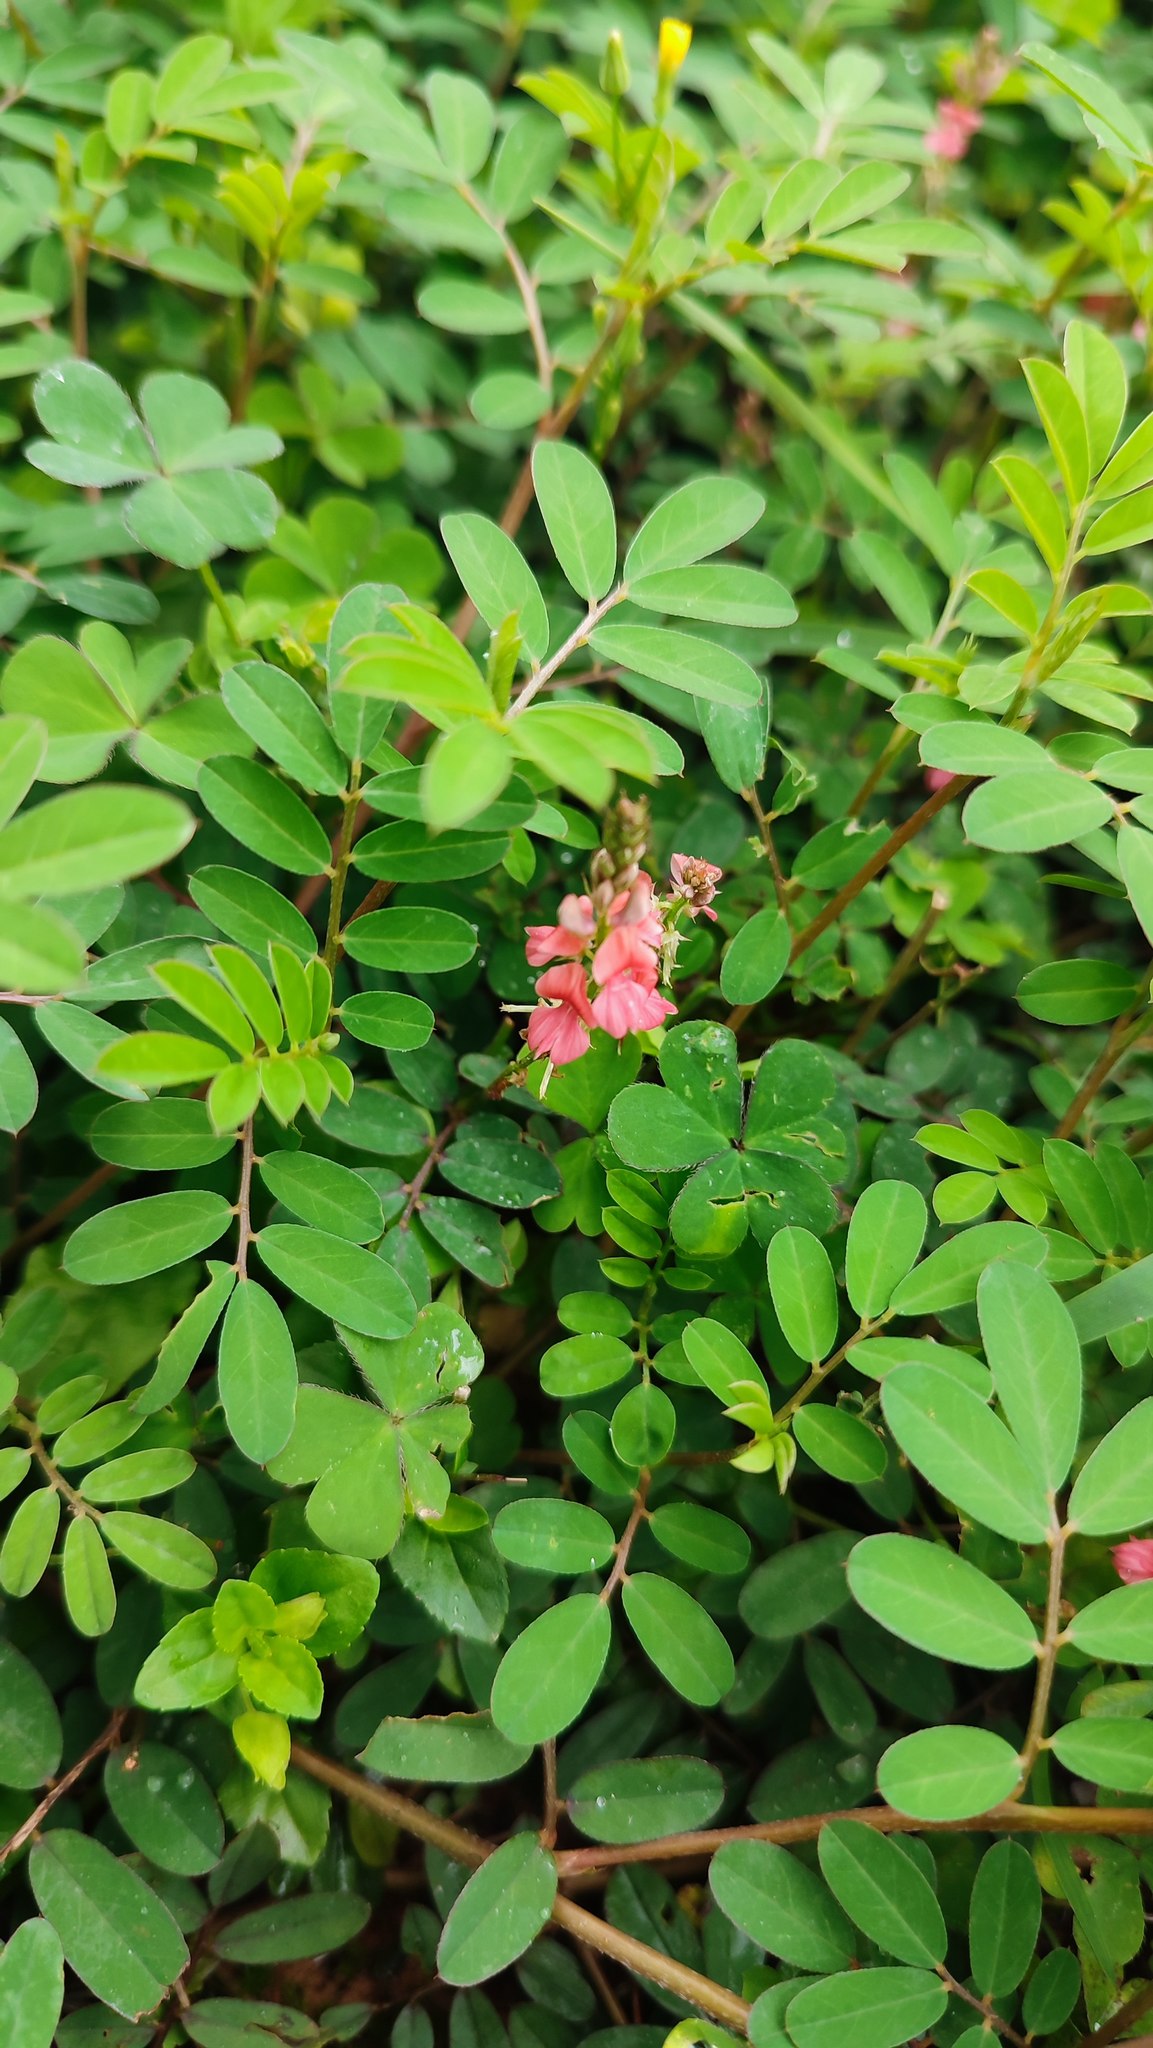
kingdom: Plantae
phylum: Tracheophyta
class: Magnoliopsida
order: Fabales
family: Fabaceae
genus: Indigofera
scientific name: Indigofera hendecaphylla
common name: Trailing indigo
